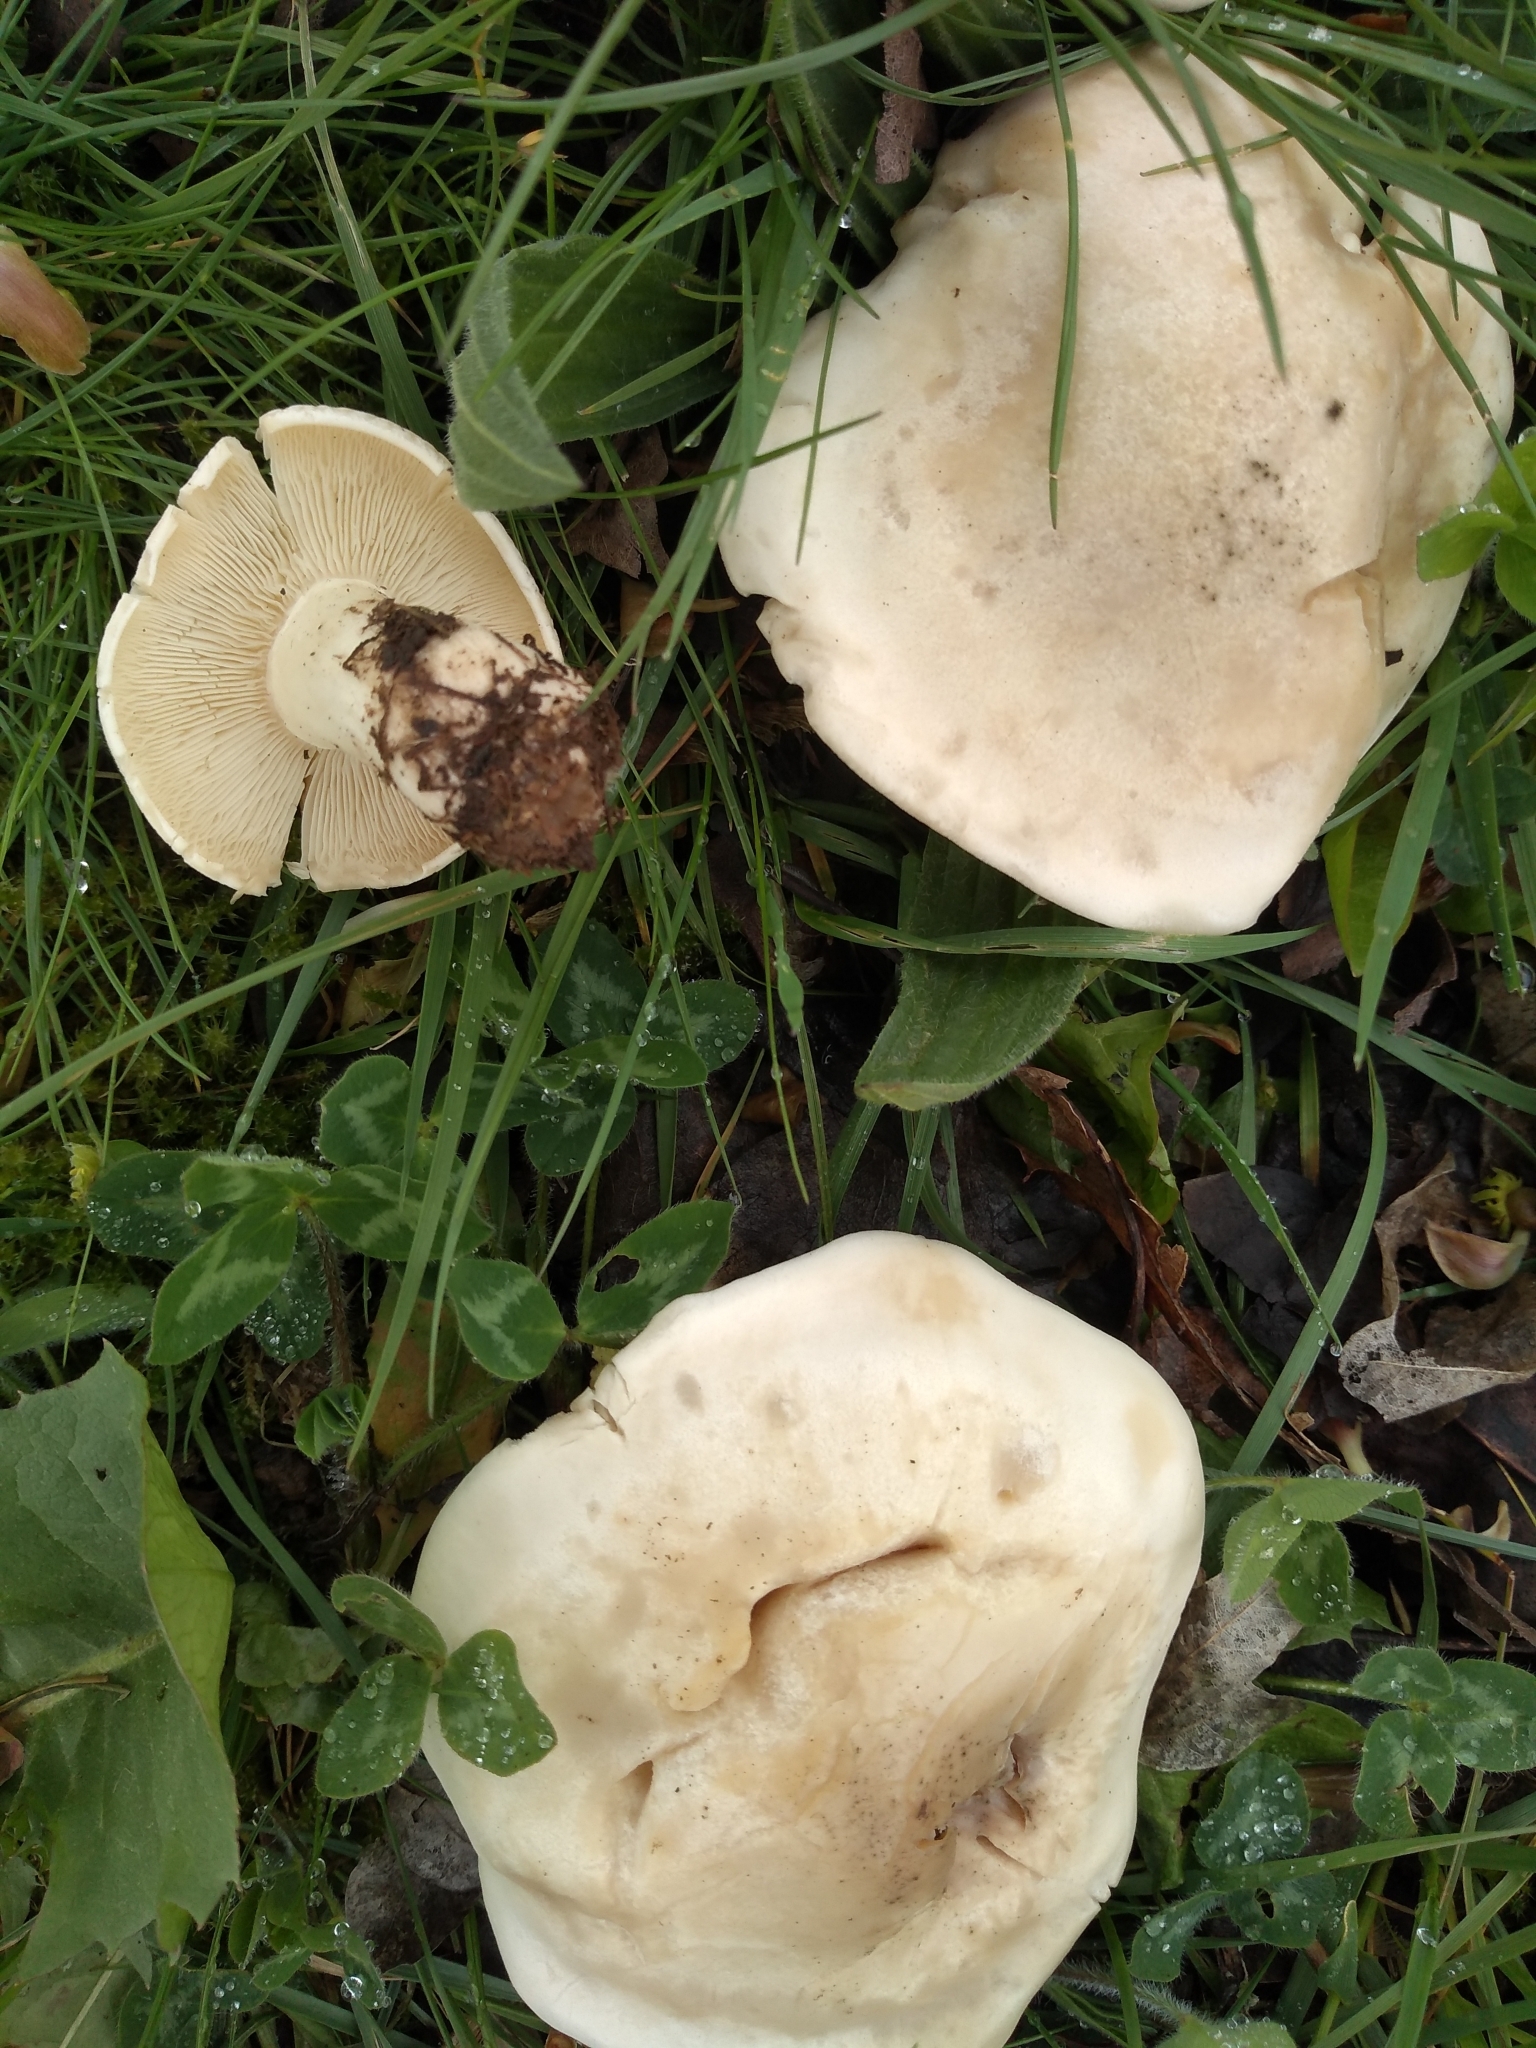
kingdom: Fungi
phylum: Basidiomycota
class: Agaricomycetes
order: Agaricales
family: Lyophyllaceae
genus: Calocybe
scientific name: Calocybe gambosa
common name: St. george's mushroom
